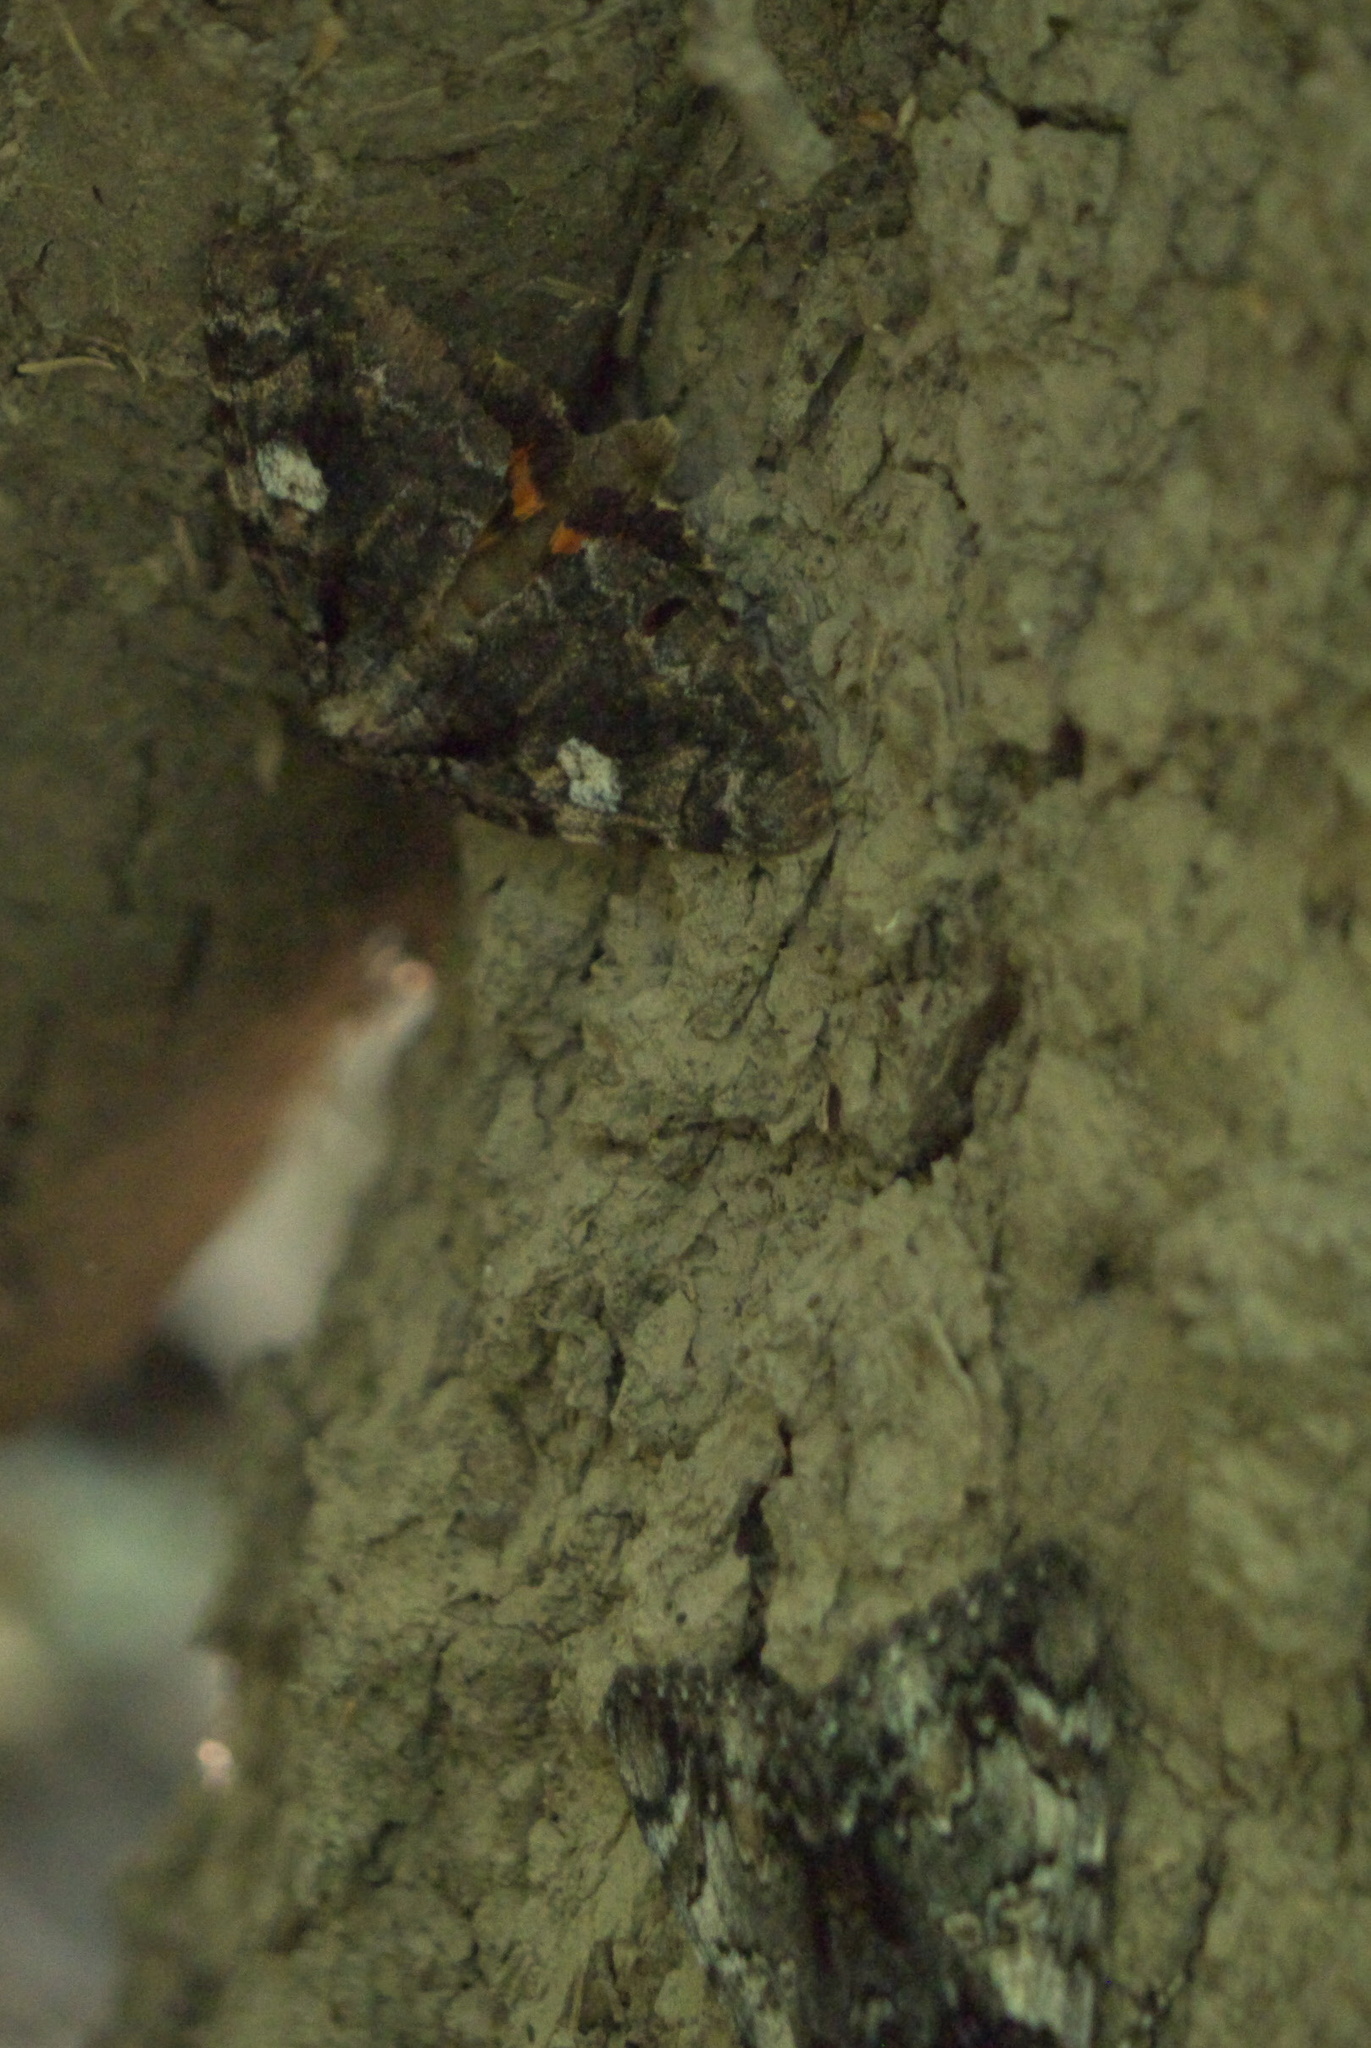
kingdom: Animalia
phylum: Arthropoda
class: Insecta
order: Lepidoptera
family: Erebidae
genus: Catocala
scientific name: Catocala ilia
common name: Ilia underwing
